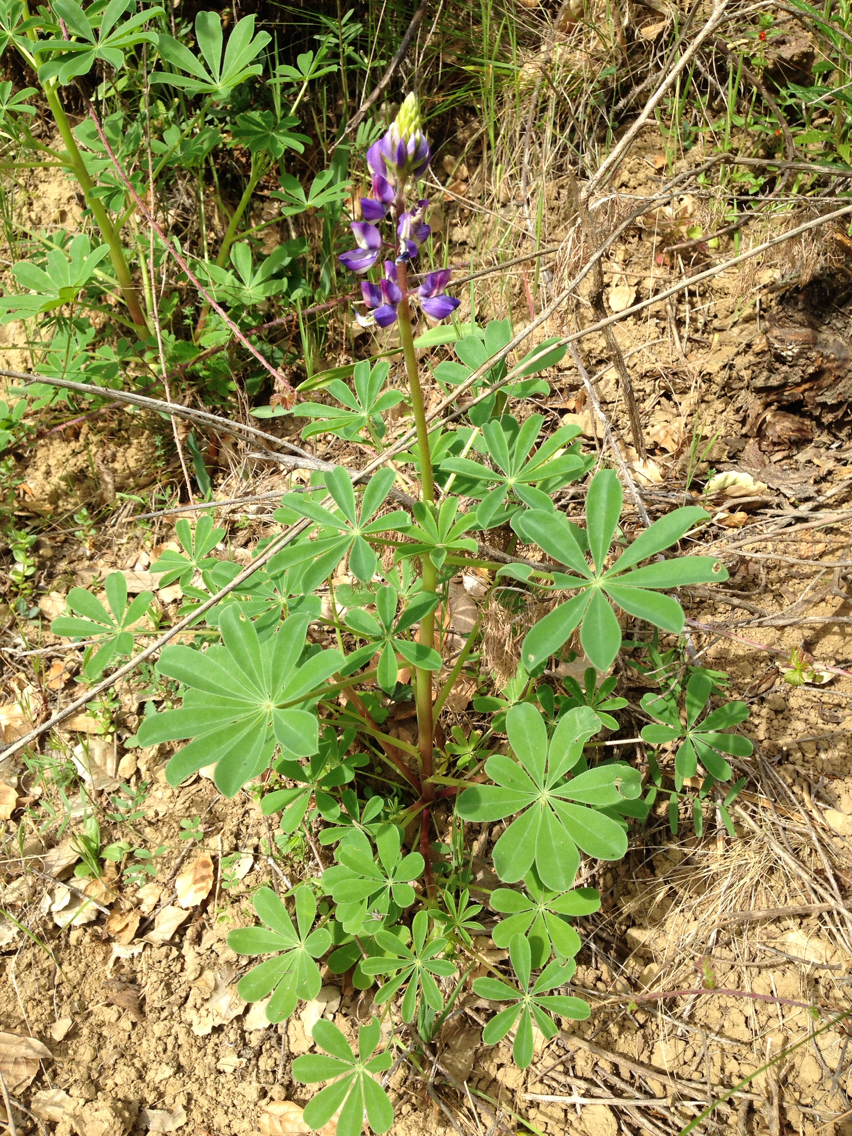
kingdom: Plantae
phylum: Tracheophyta
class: Magnoliopsida
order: Fabales
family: Fabaceae
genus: Lupinus
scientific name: Lupinus succulentus
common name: Arroyo lupine
